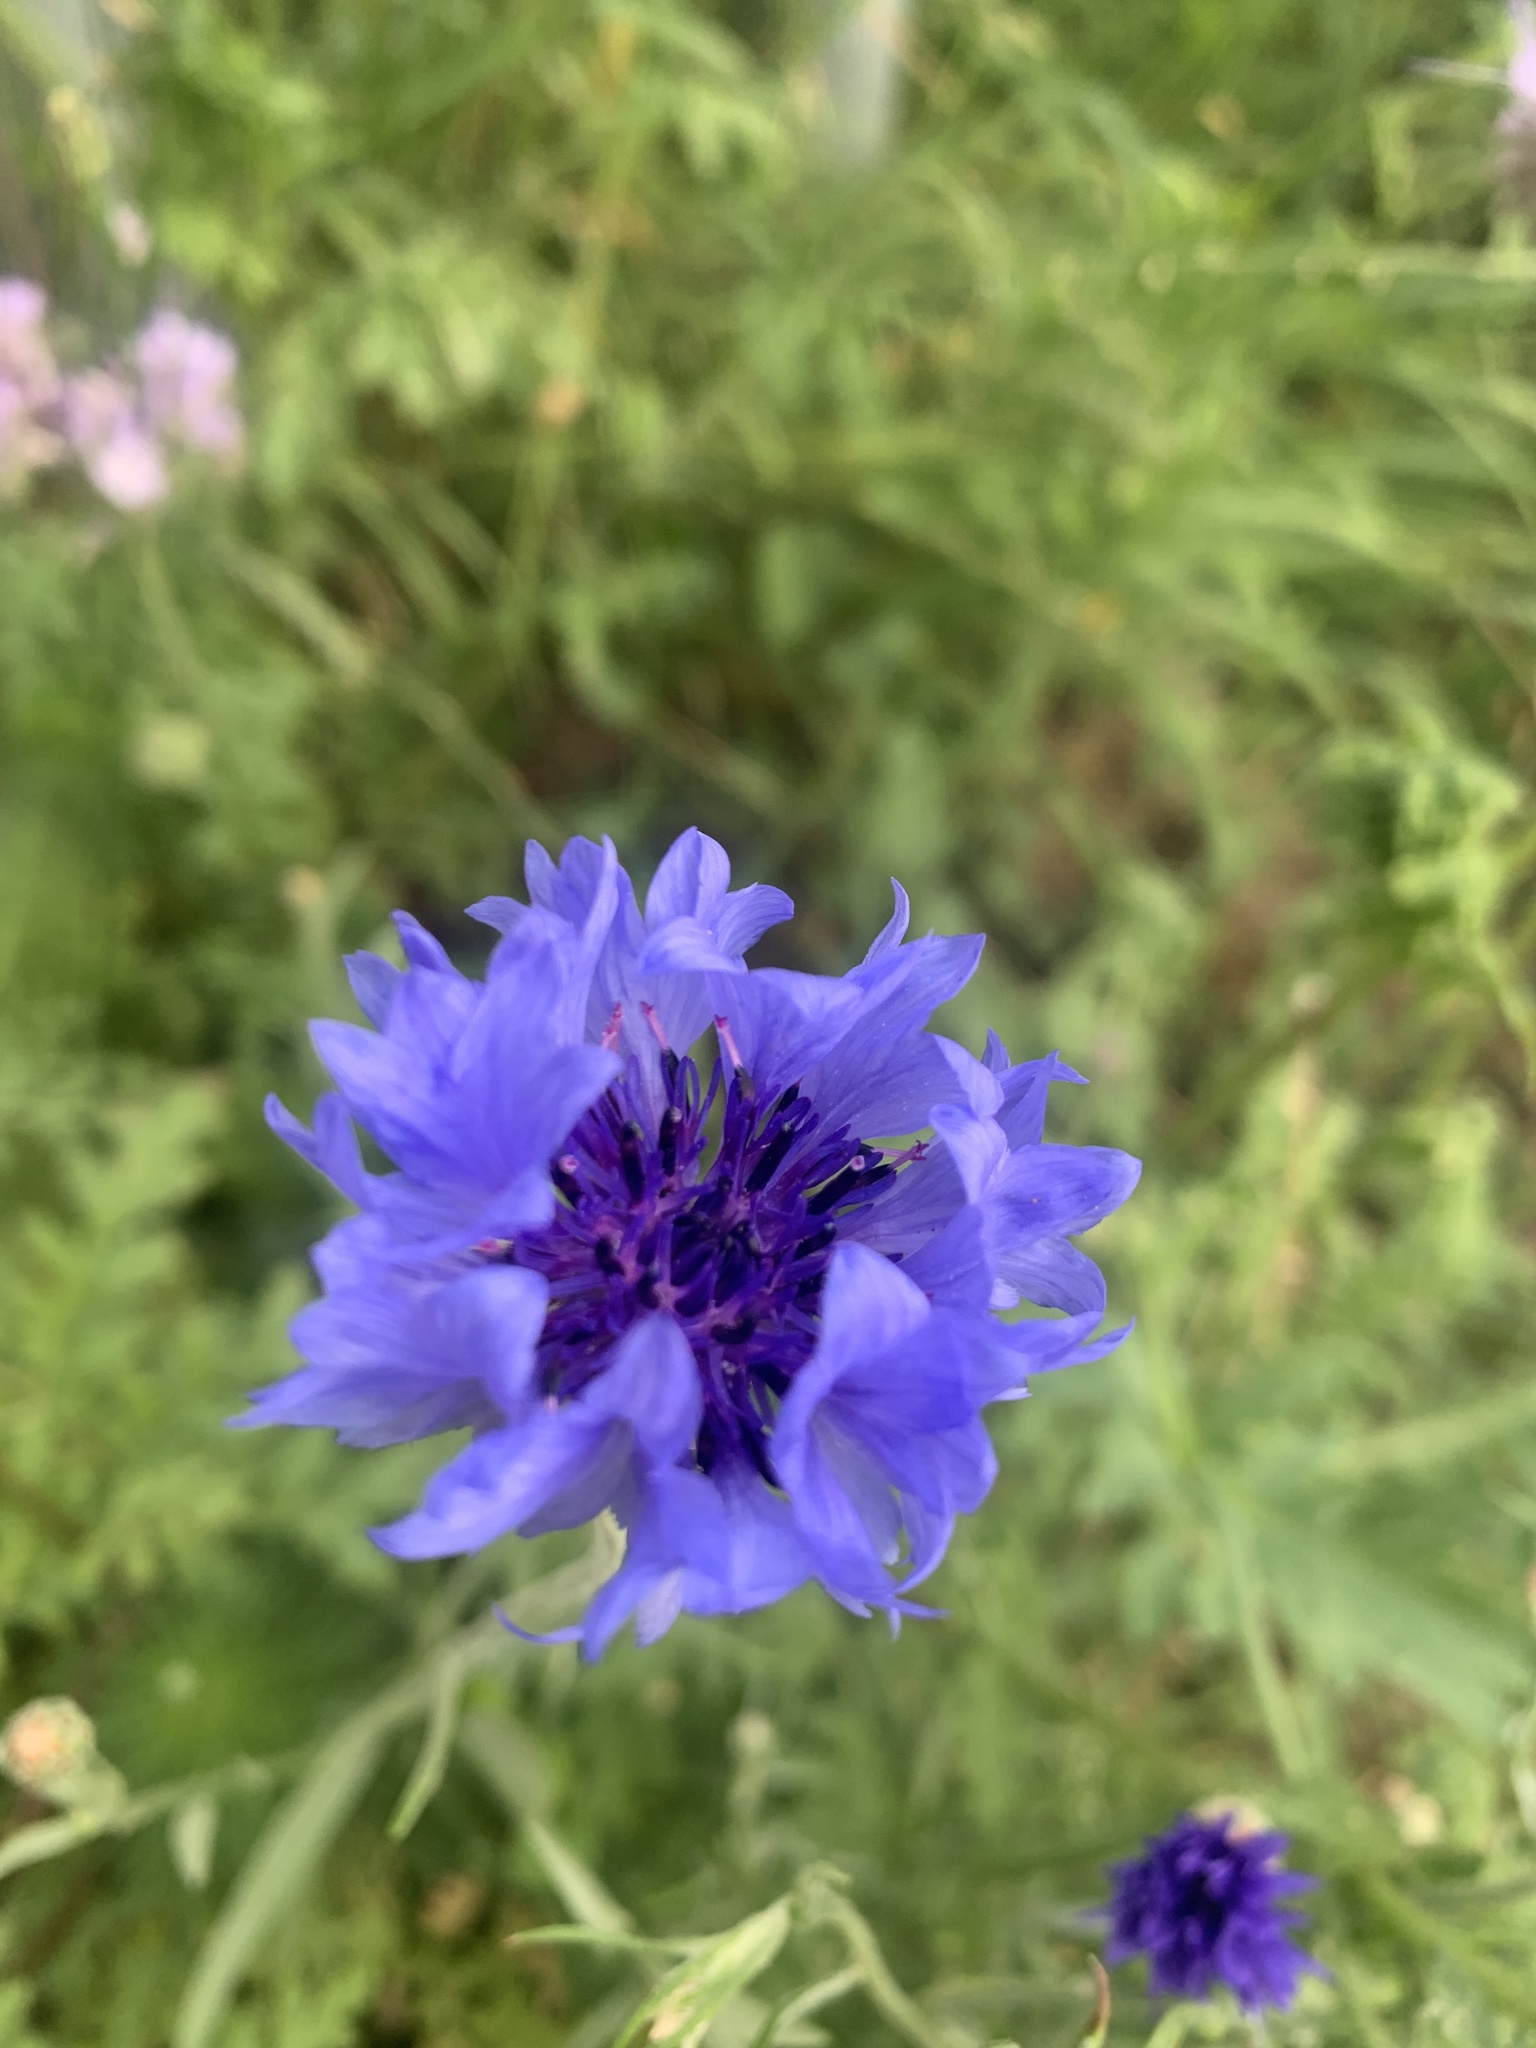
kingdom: Plantae
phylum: Tracheophyta
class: Magnoliopsida
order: Asterales
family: Asteraceae
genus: Centaurea
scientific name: Centaurea cyanus
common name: Cornflower
